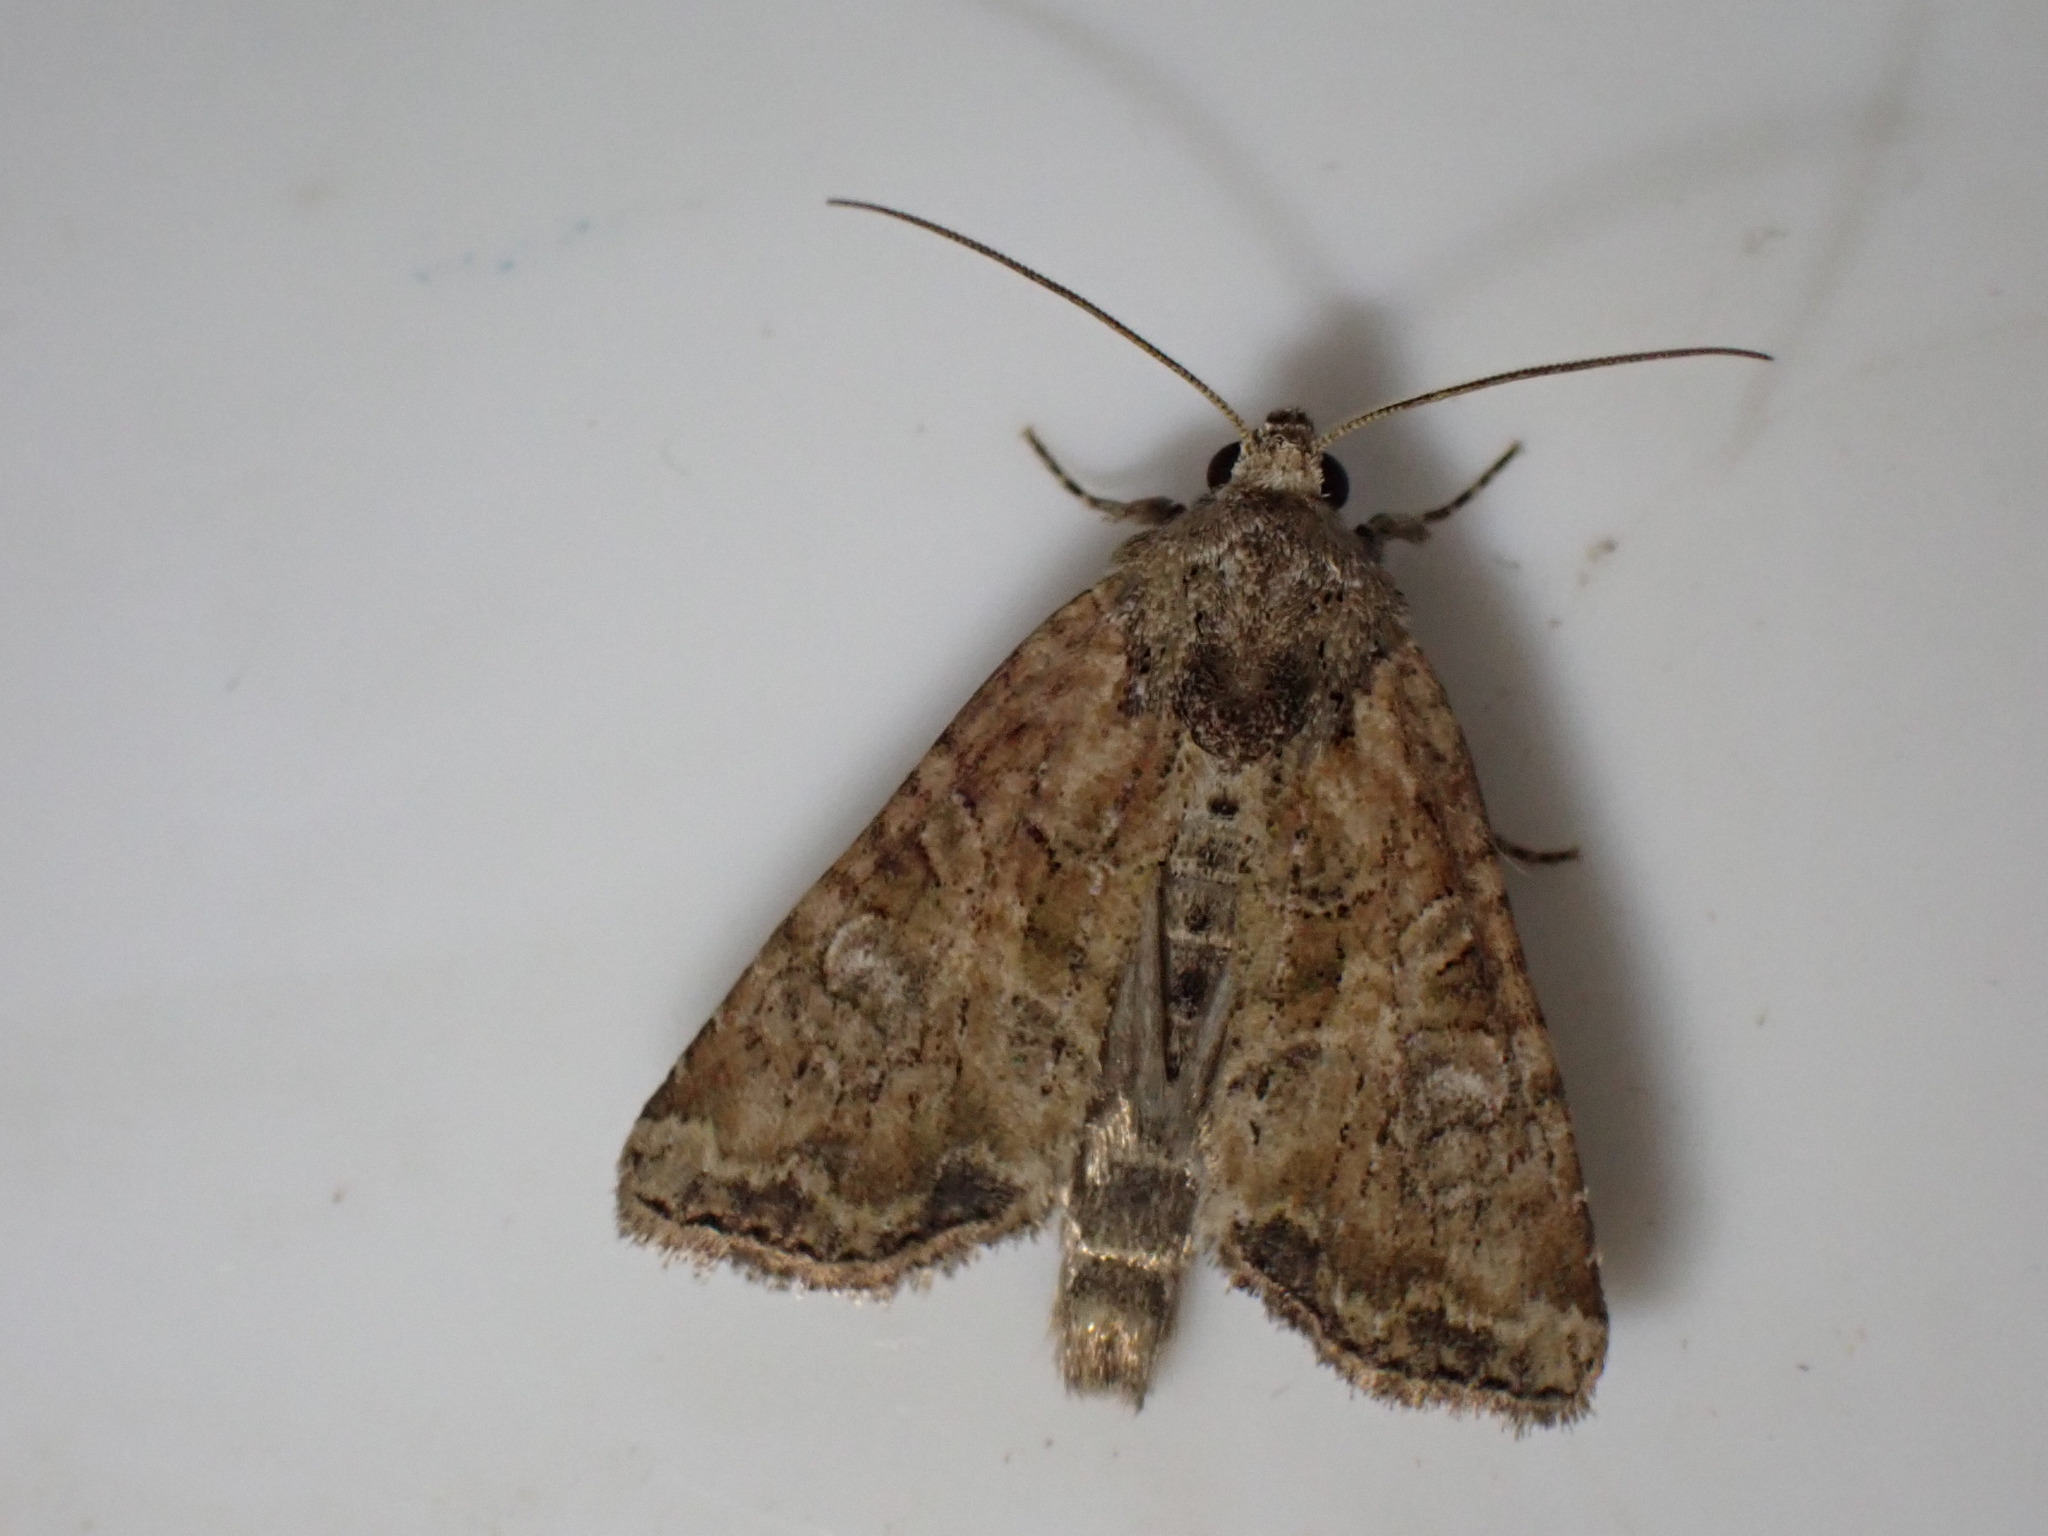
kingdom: Animalia
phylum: Arthropoda
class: Insecta
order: Lepidoptera
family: Noctuidae
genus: Mesoligia
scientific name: Mesoligia furuncula
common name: Cloaked minor
